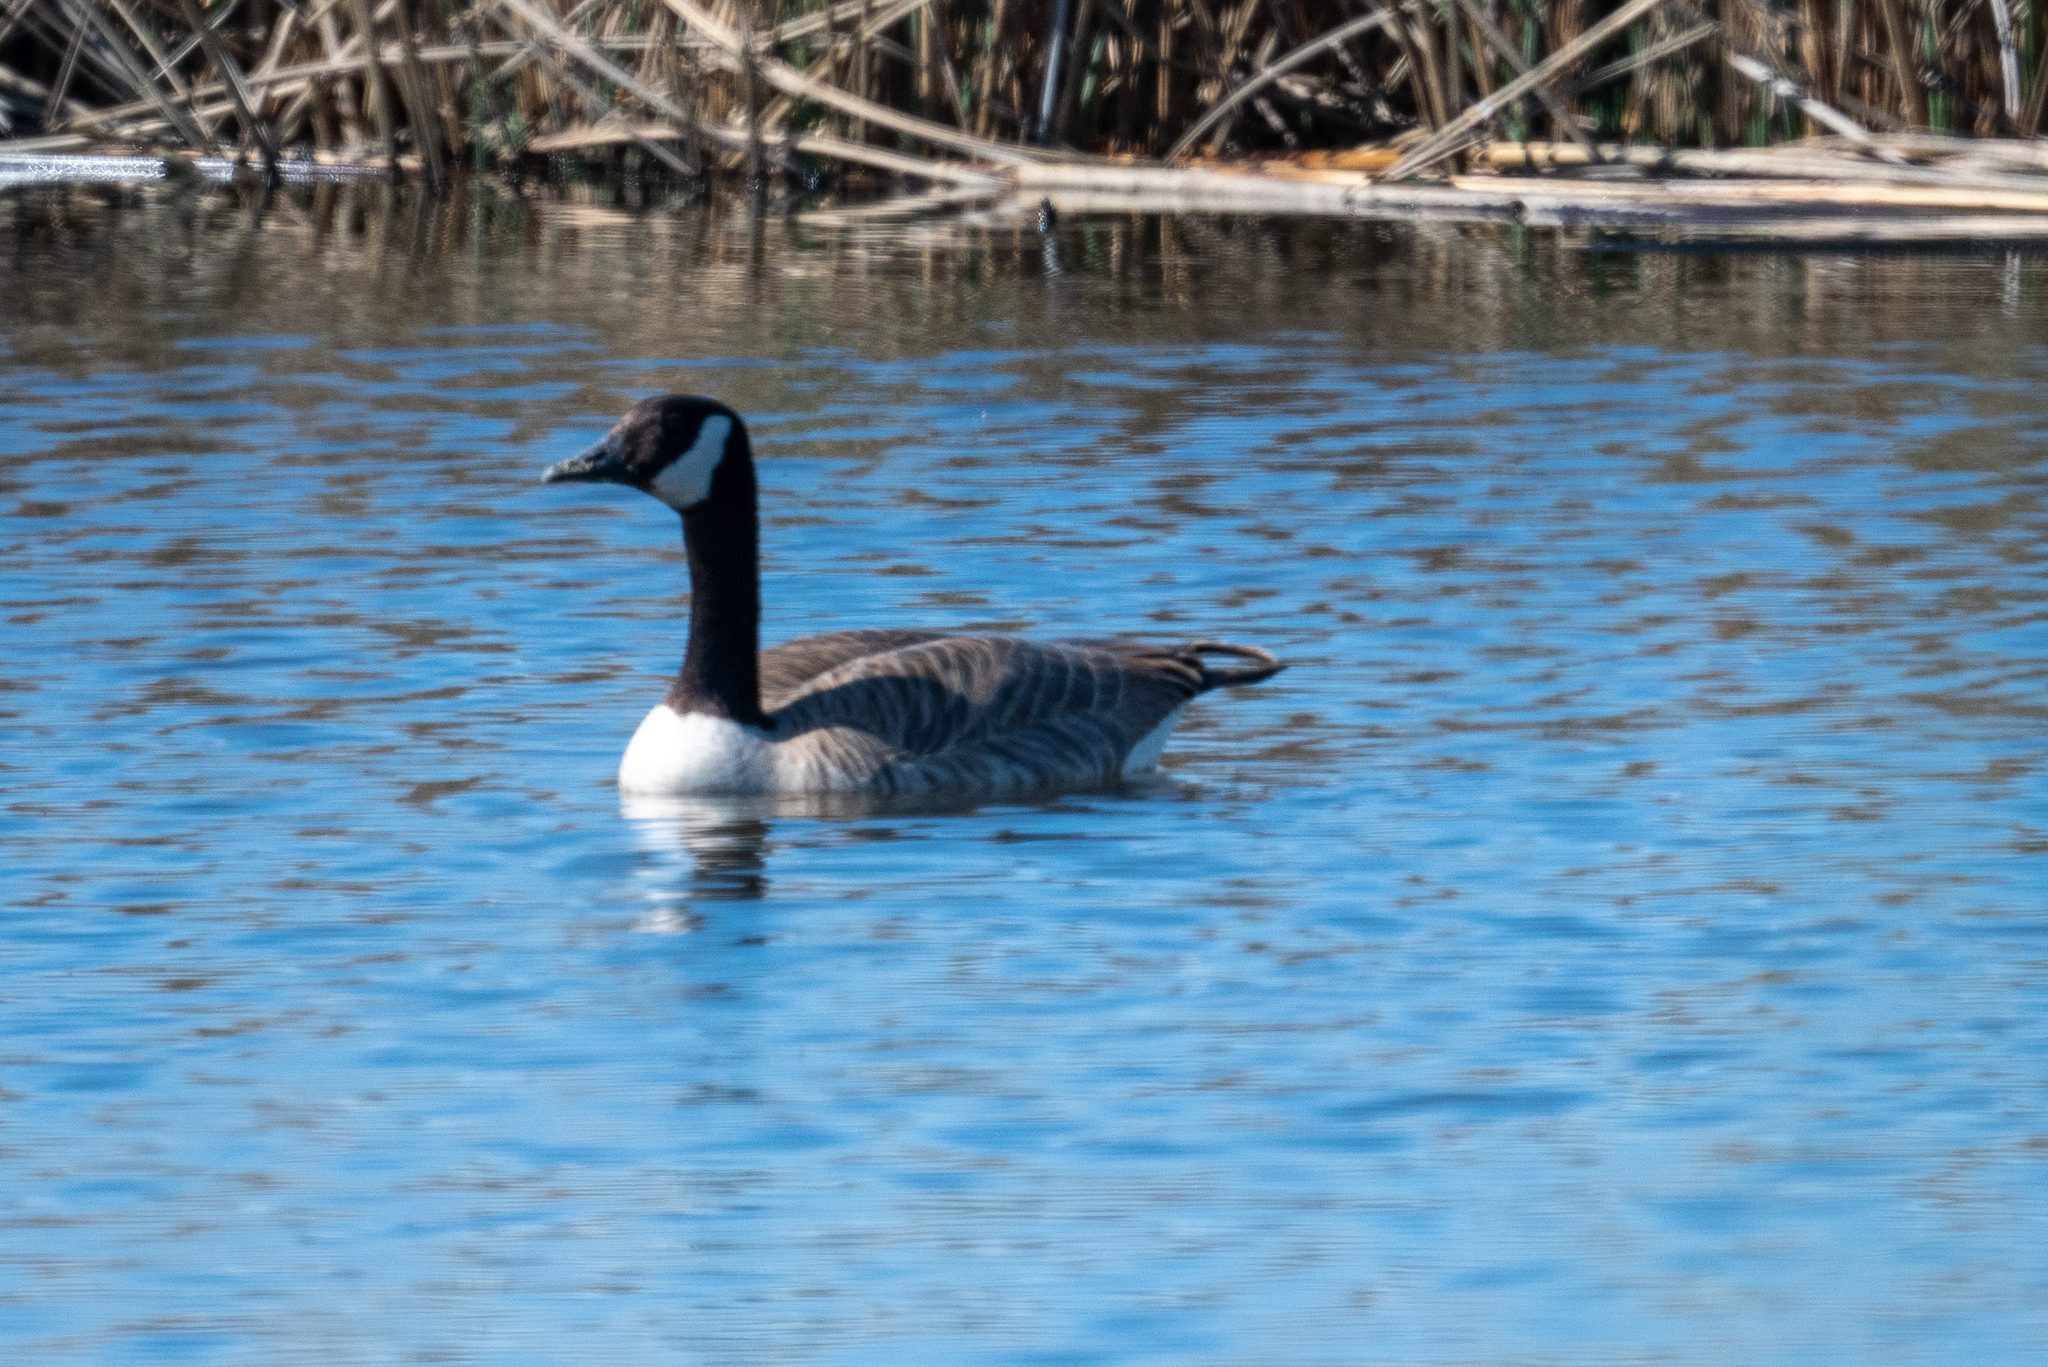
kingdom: Animalia
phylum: Chordata
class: Aves
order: Anseriformes
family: Anatidae
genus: Branta
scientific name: Branta canadensis
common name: Canada goose
